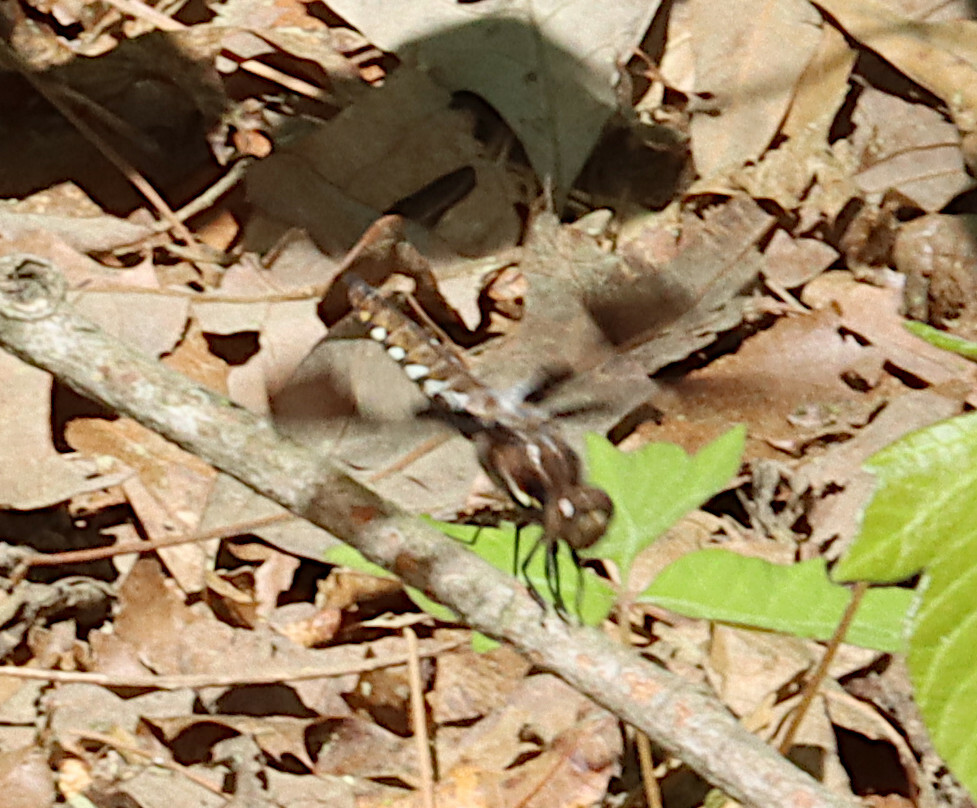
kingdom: Animalia
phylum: Arthropoda
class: Insecta
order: Odonata
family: Libellulidae
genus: Plathemis
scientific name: Plathemis lydia
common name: Common whitetail
